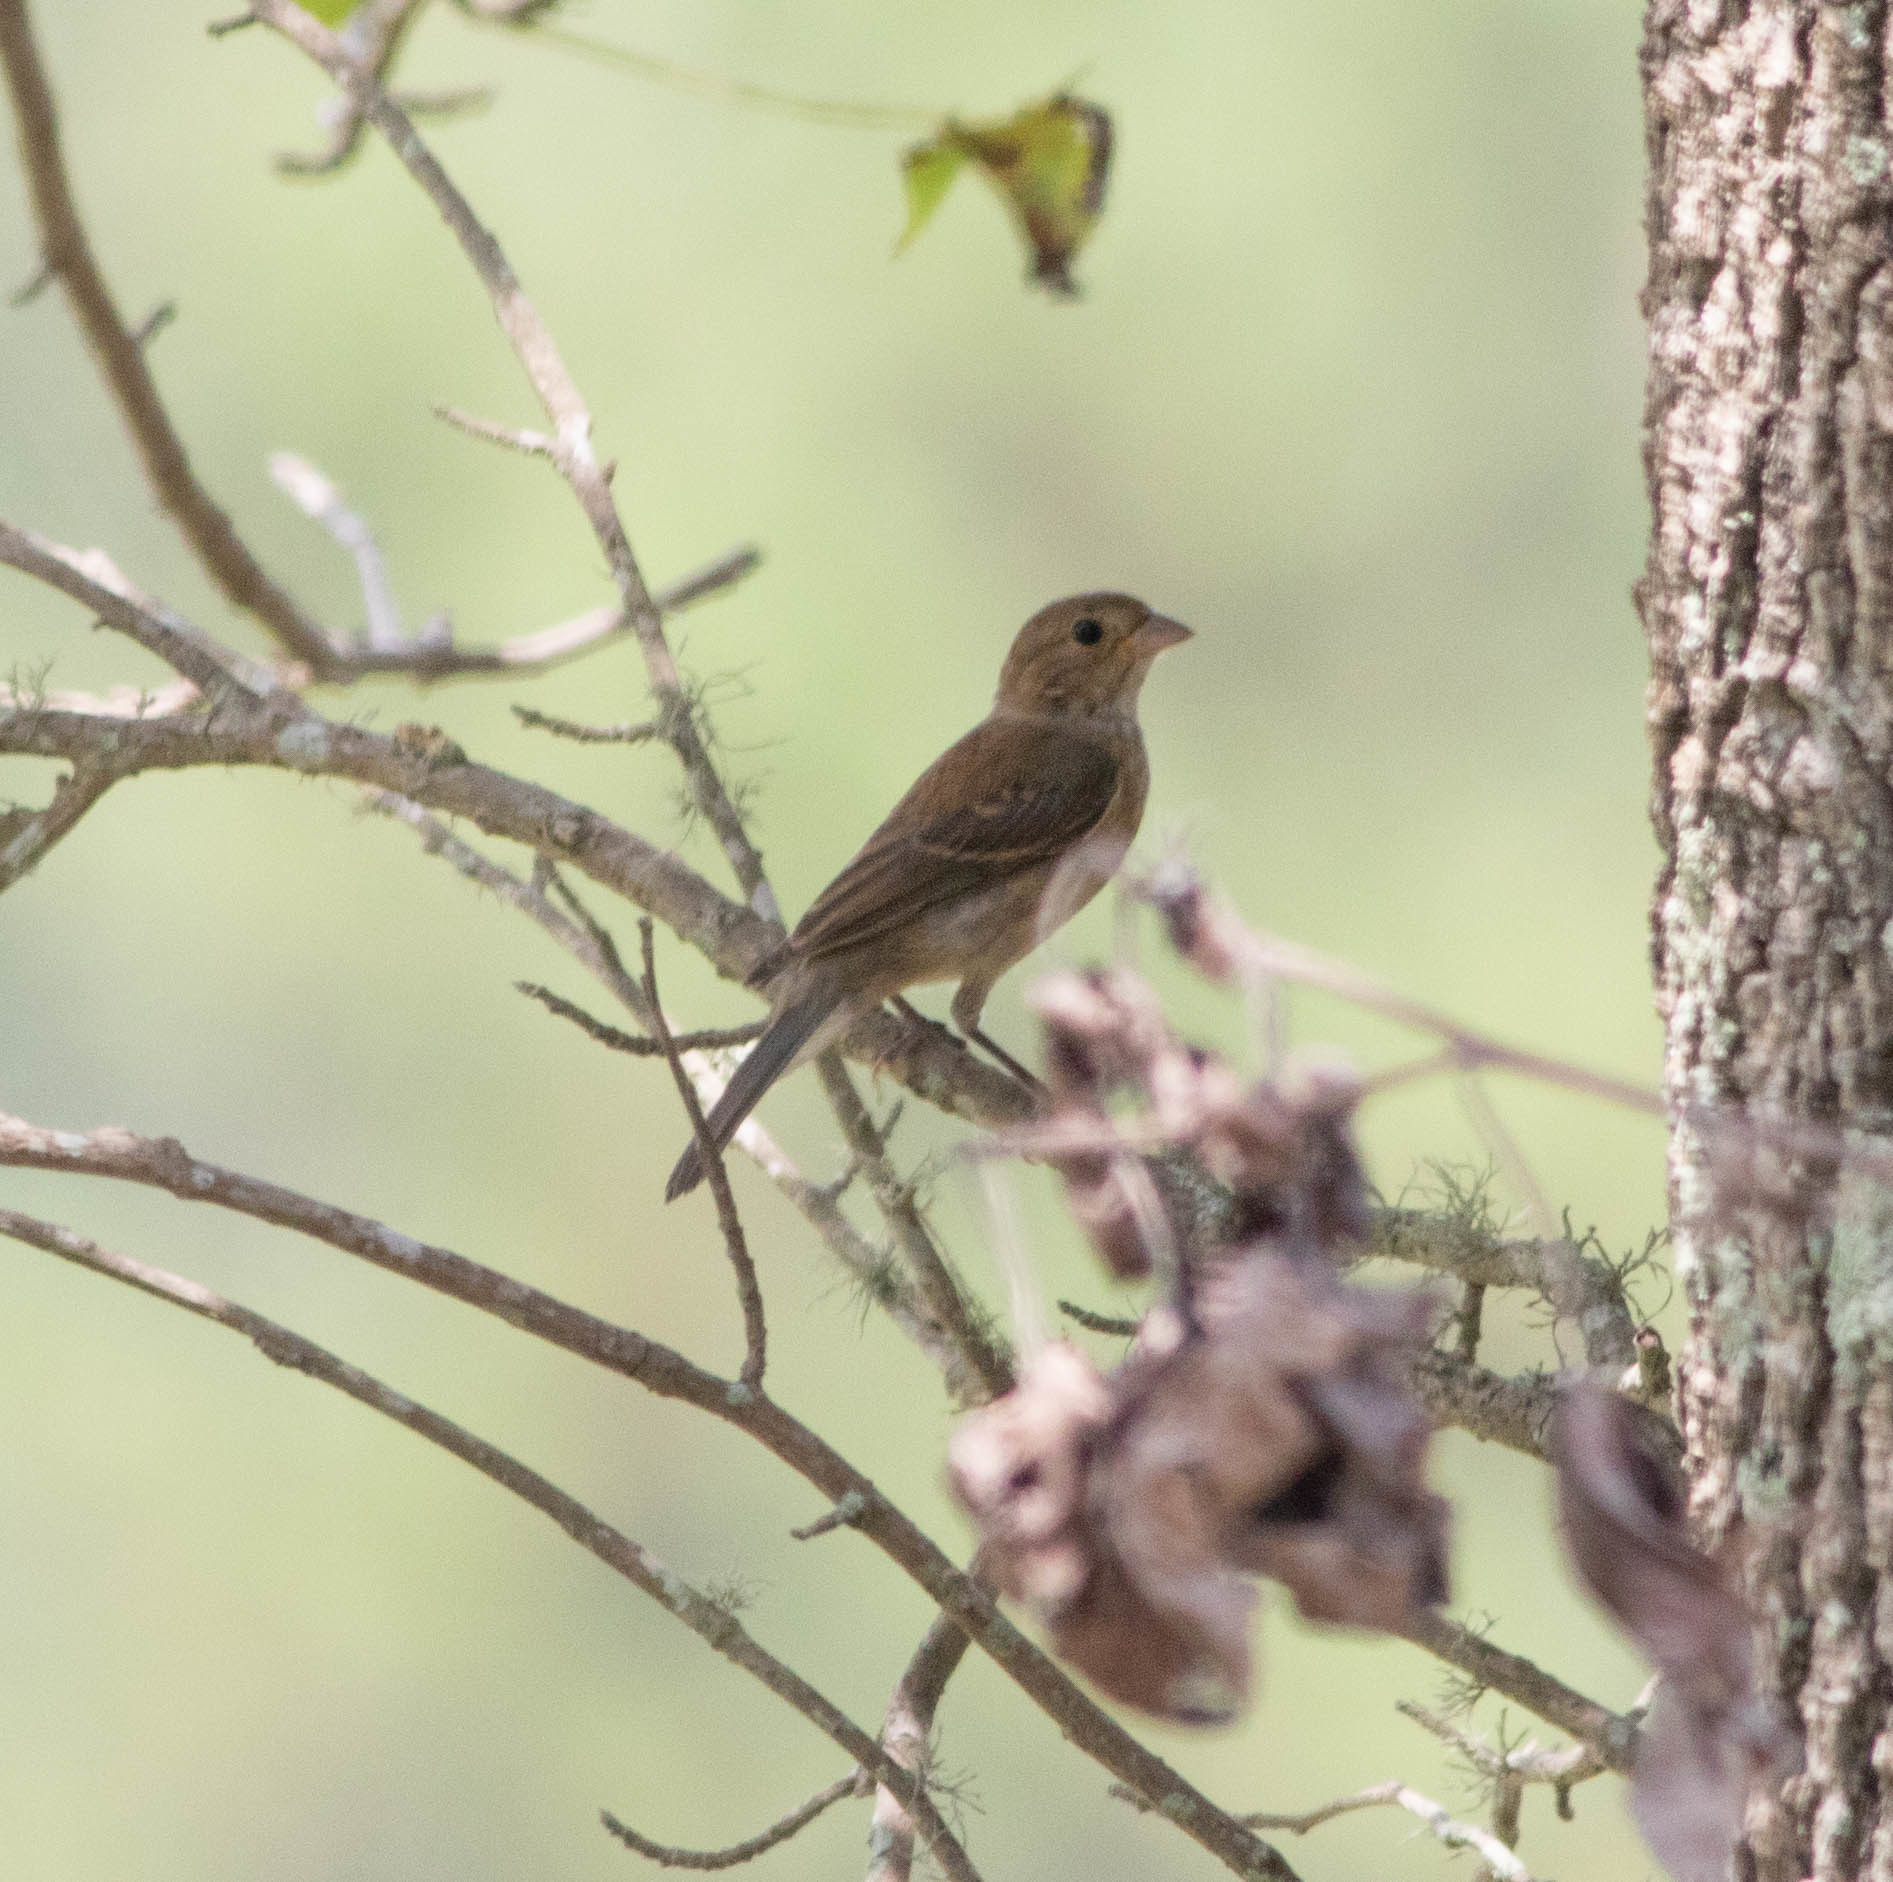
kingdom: Animalia
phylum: Chordata
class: Aves
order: Passeriformes
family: Cardinalidae
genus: Passerina
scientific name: Passerina cyanea
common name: Indigo bunting
